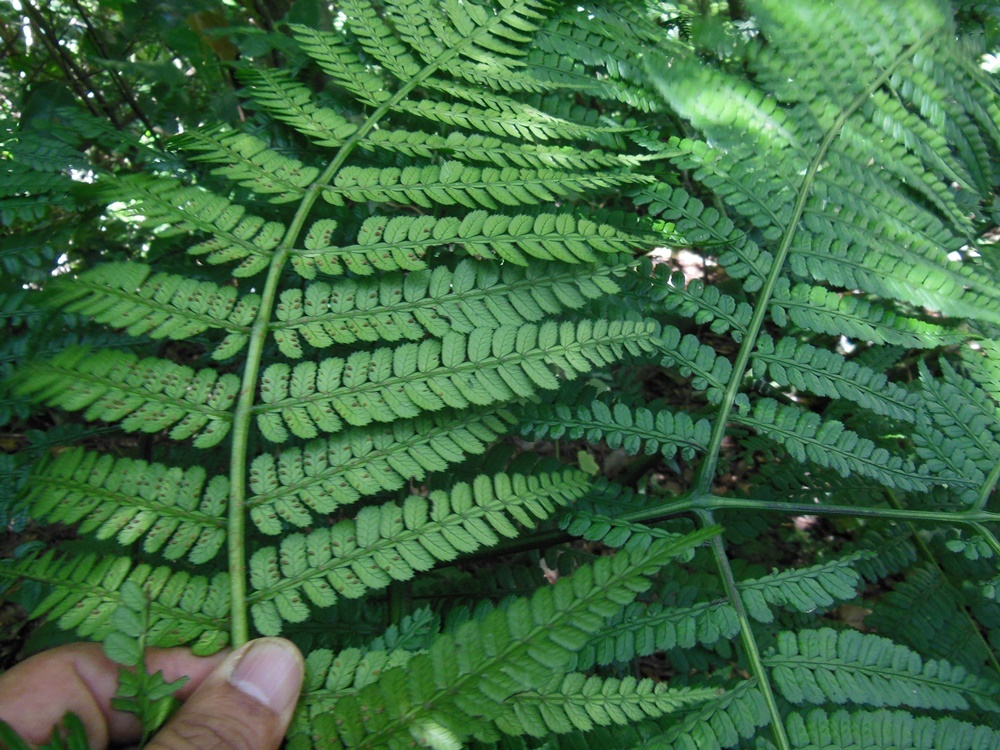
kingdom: Plantae
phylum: Tracheophyta
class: Polypodiopsida
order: Marattiales
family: Marattiaceae
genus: Marattia
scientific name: Marattia weinmanniifolia
